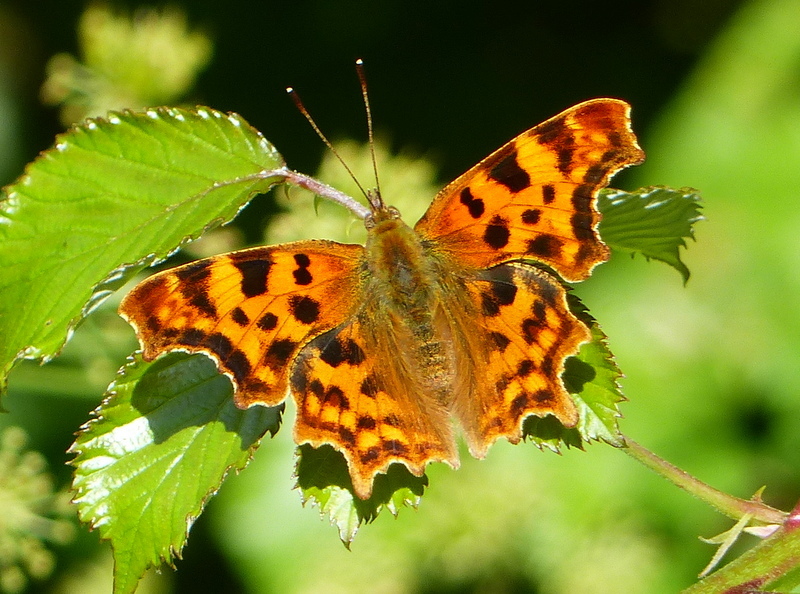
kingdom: Animalia
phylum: Arthropoda
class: Insecta
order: Lepidoptera
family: Nymphalidae
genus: Polygonia
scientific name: Polygonia c-album
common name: Comma
